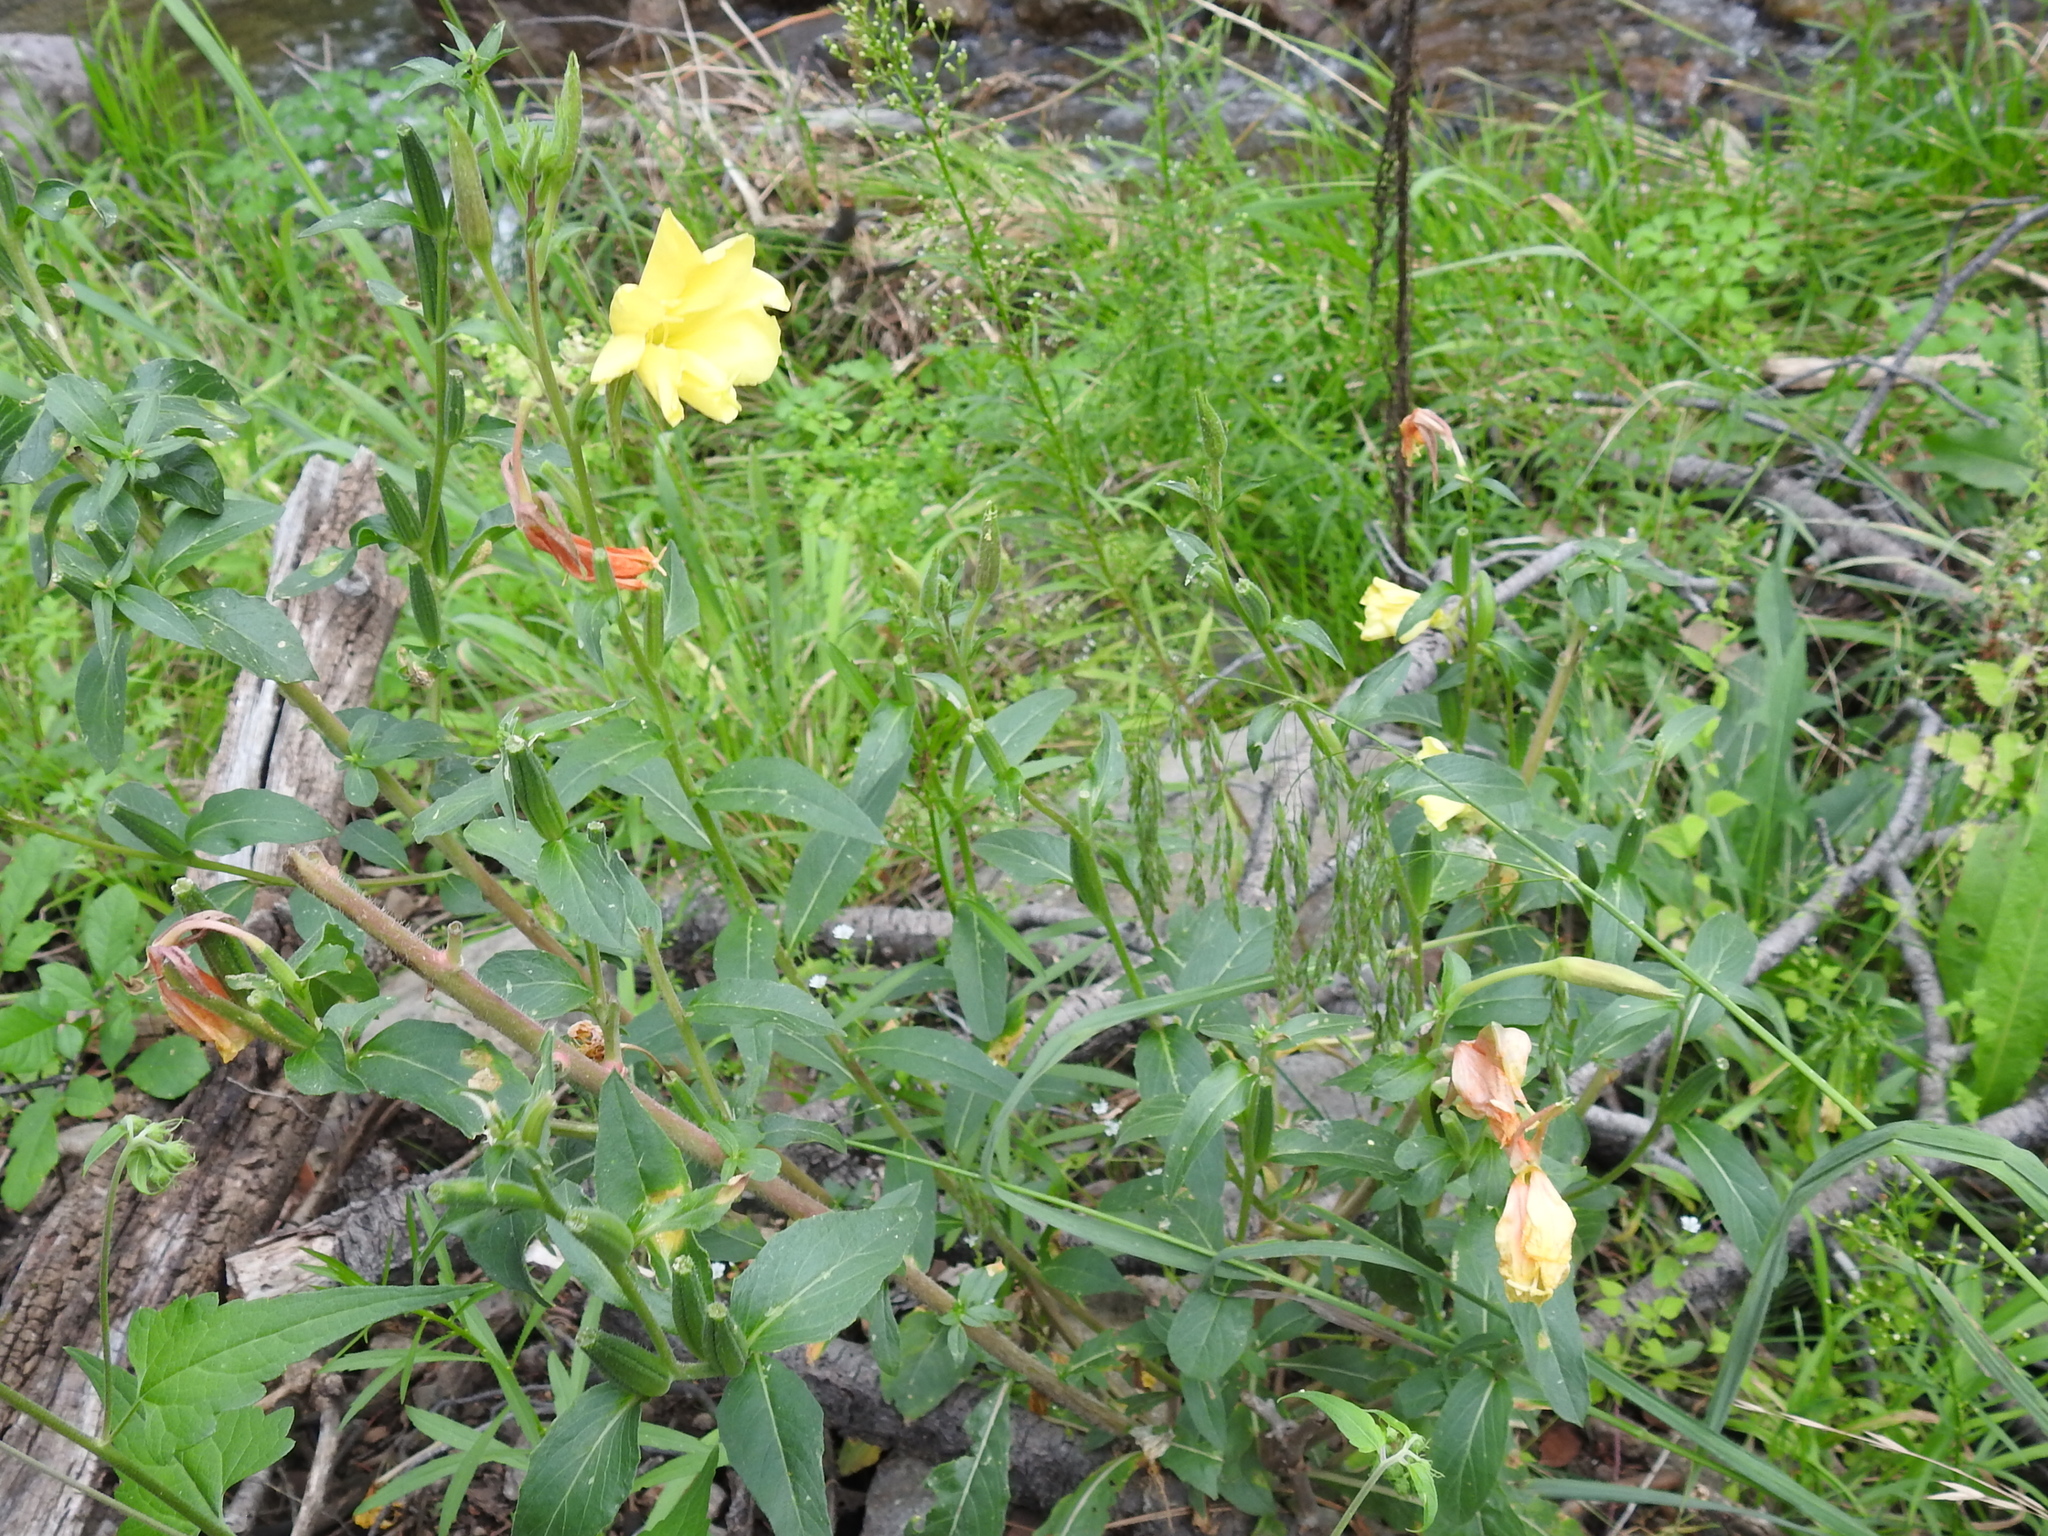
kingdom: Plantae
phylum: Tracheophyta
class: Magnoliopsida
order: Myrtales
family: Onagraceae
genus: Oenothera
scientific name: Oenothera elata
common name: Hooker's evening-primrose
